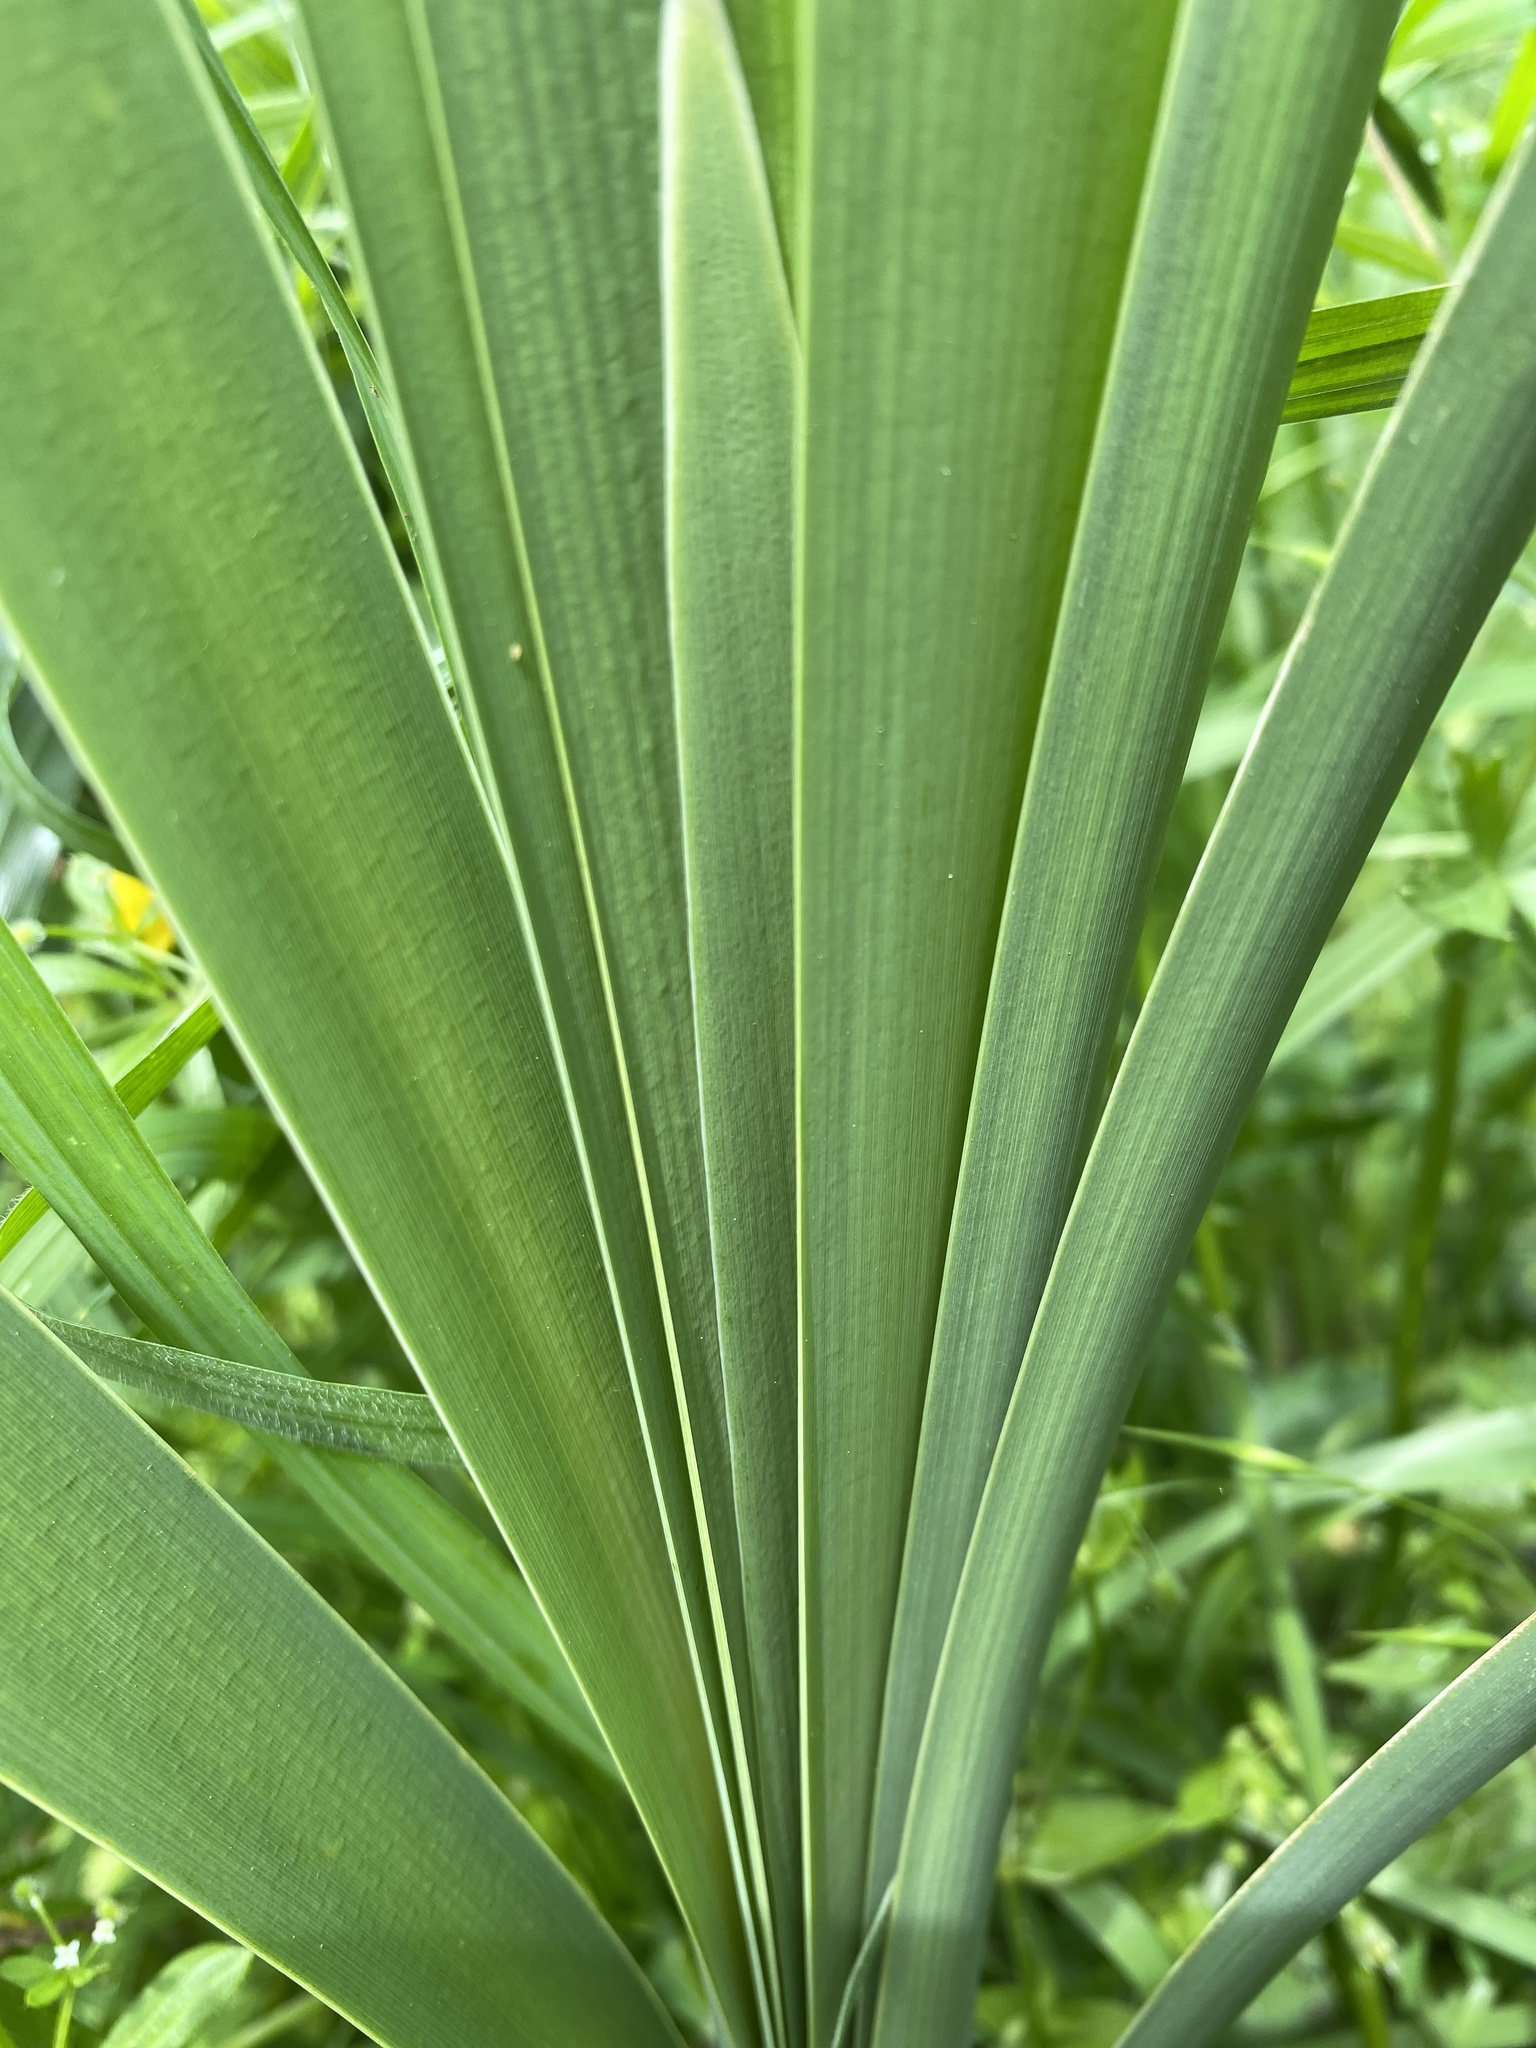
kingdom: Plantae
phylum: Tracheophyta
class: Liliopsida
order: Poales
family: Typhaceae
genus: Typha
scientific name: Typha latifolia
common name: Broadleaf cattail
